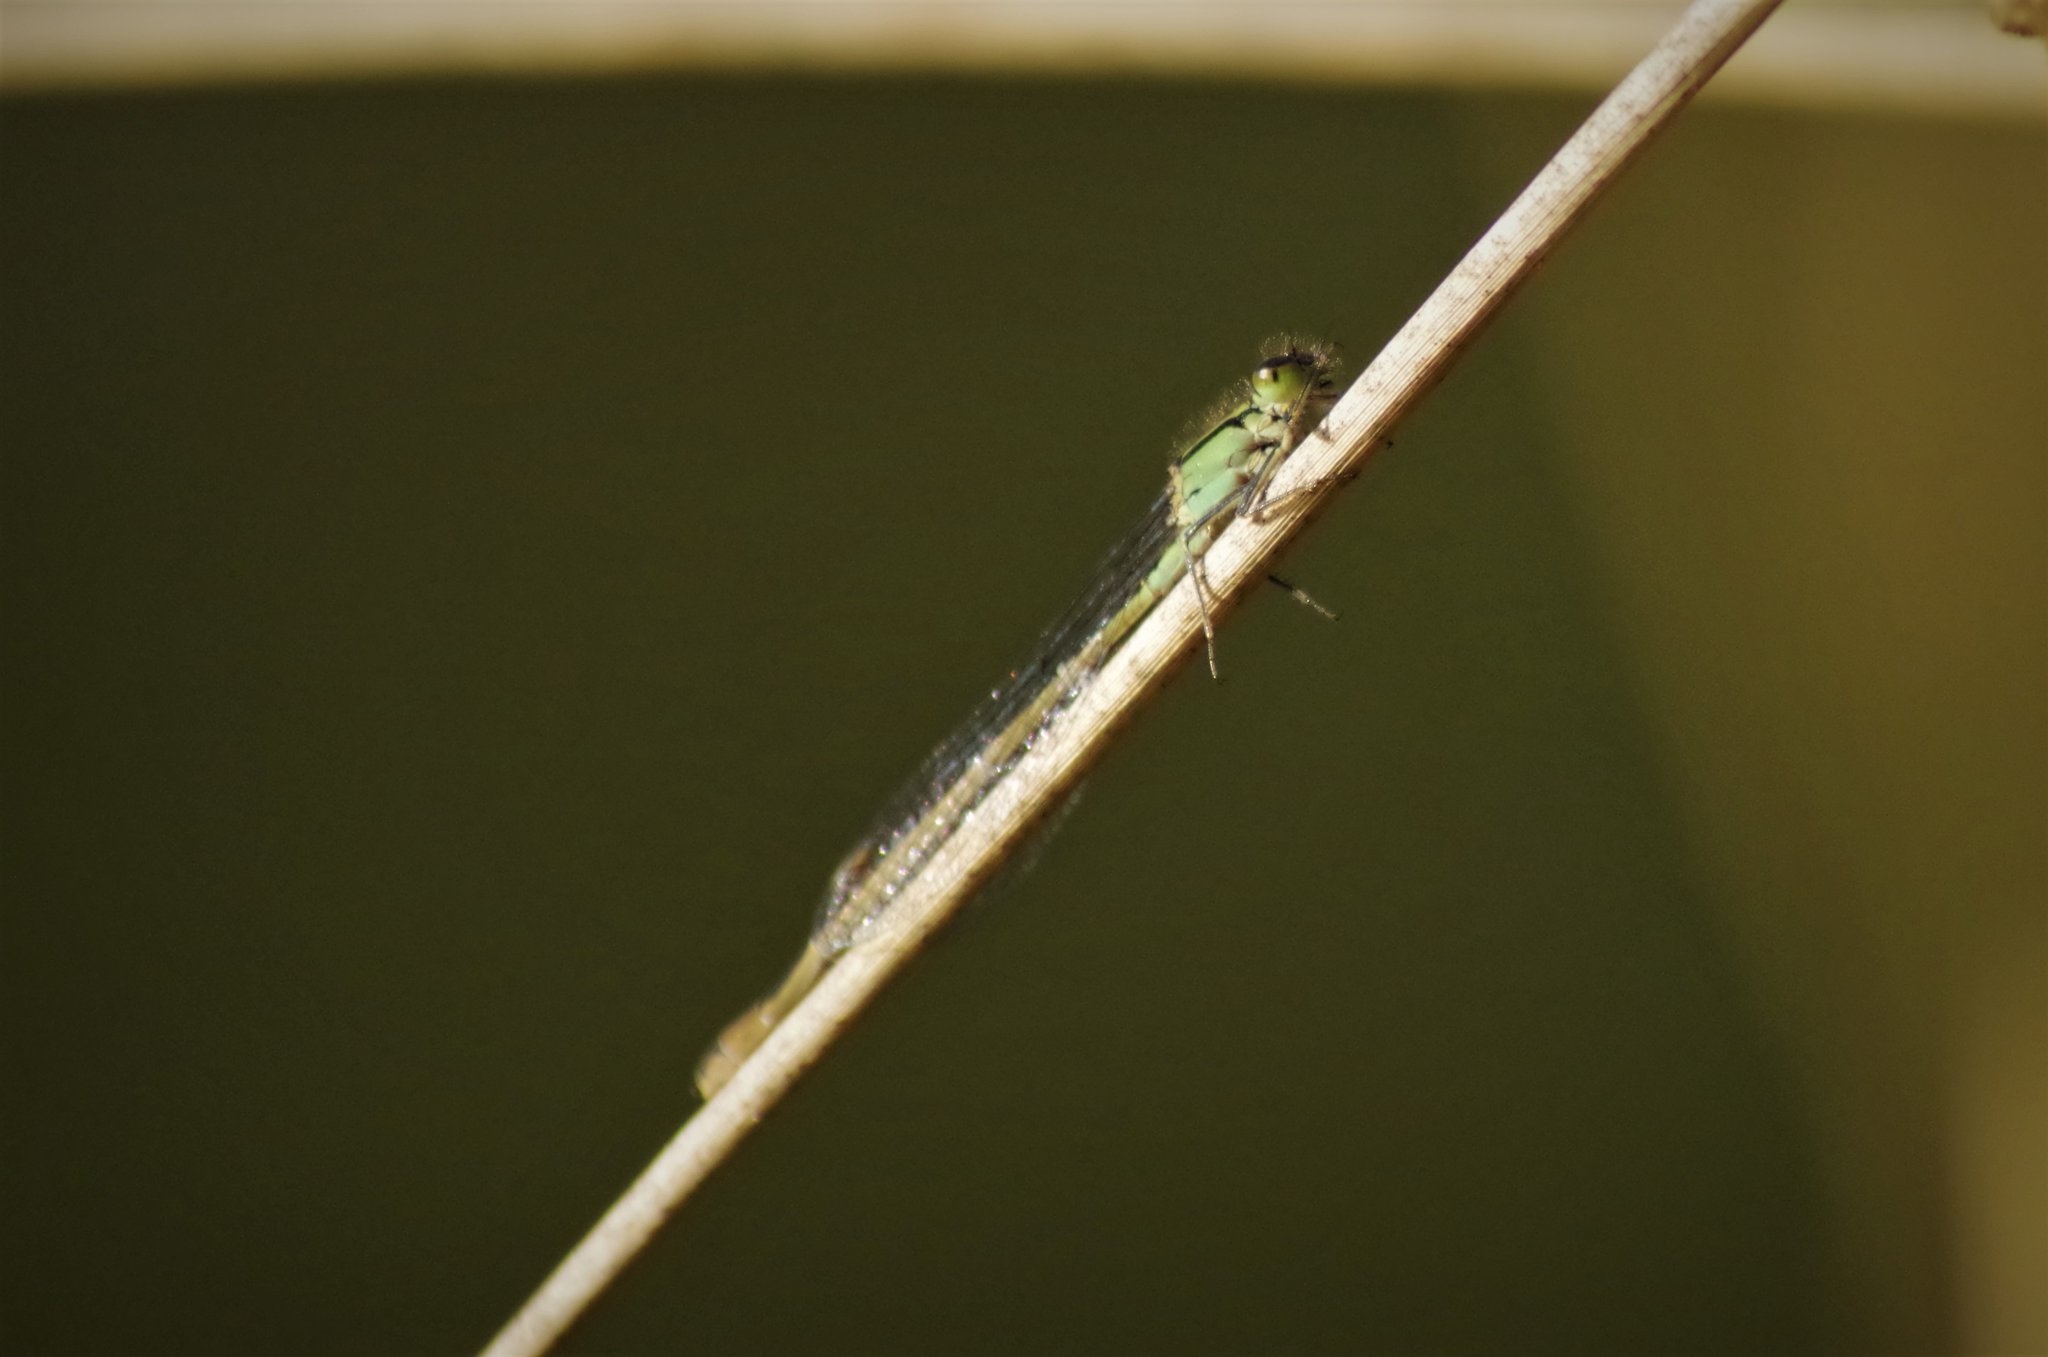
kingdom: Animalia
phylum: Arthropoda
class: Insecta
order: Odonata
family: Coenagrionidae
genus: Ischnura
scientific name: Ischnura elegans
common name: Blue-tailed damselfly
